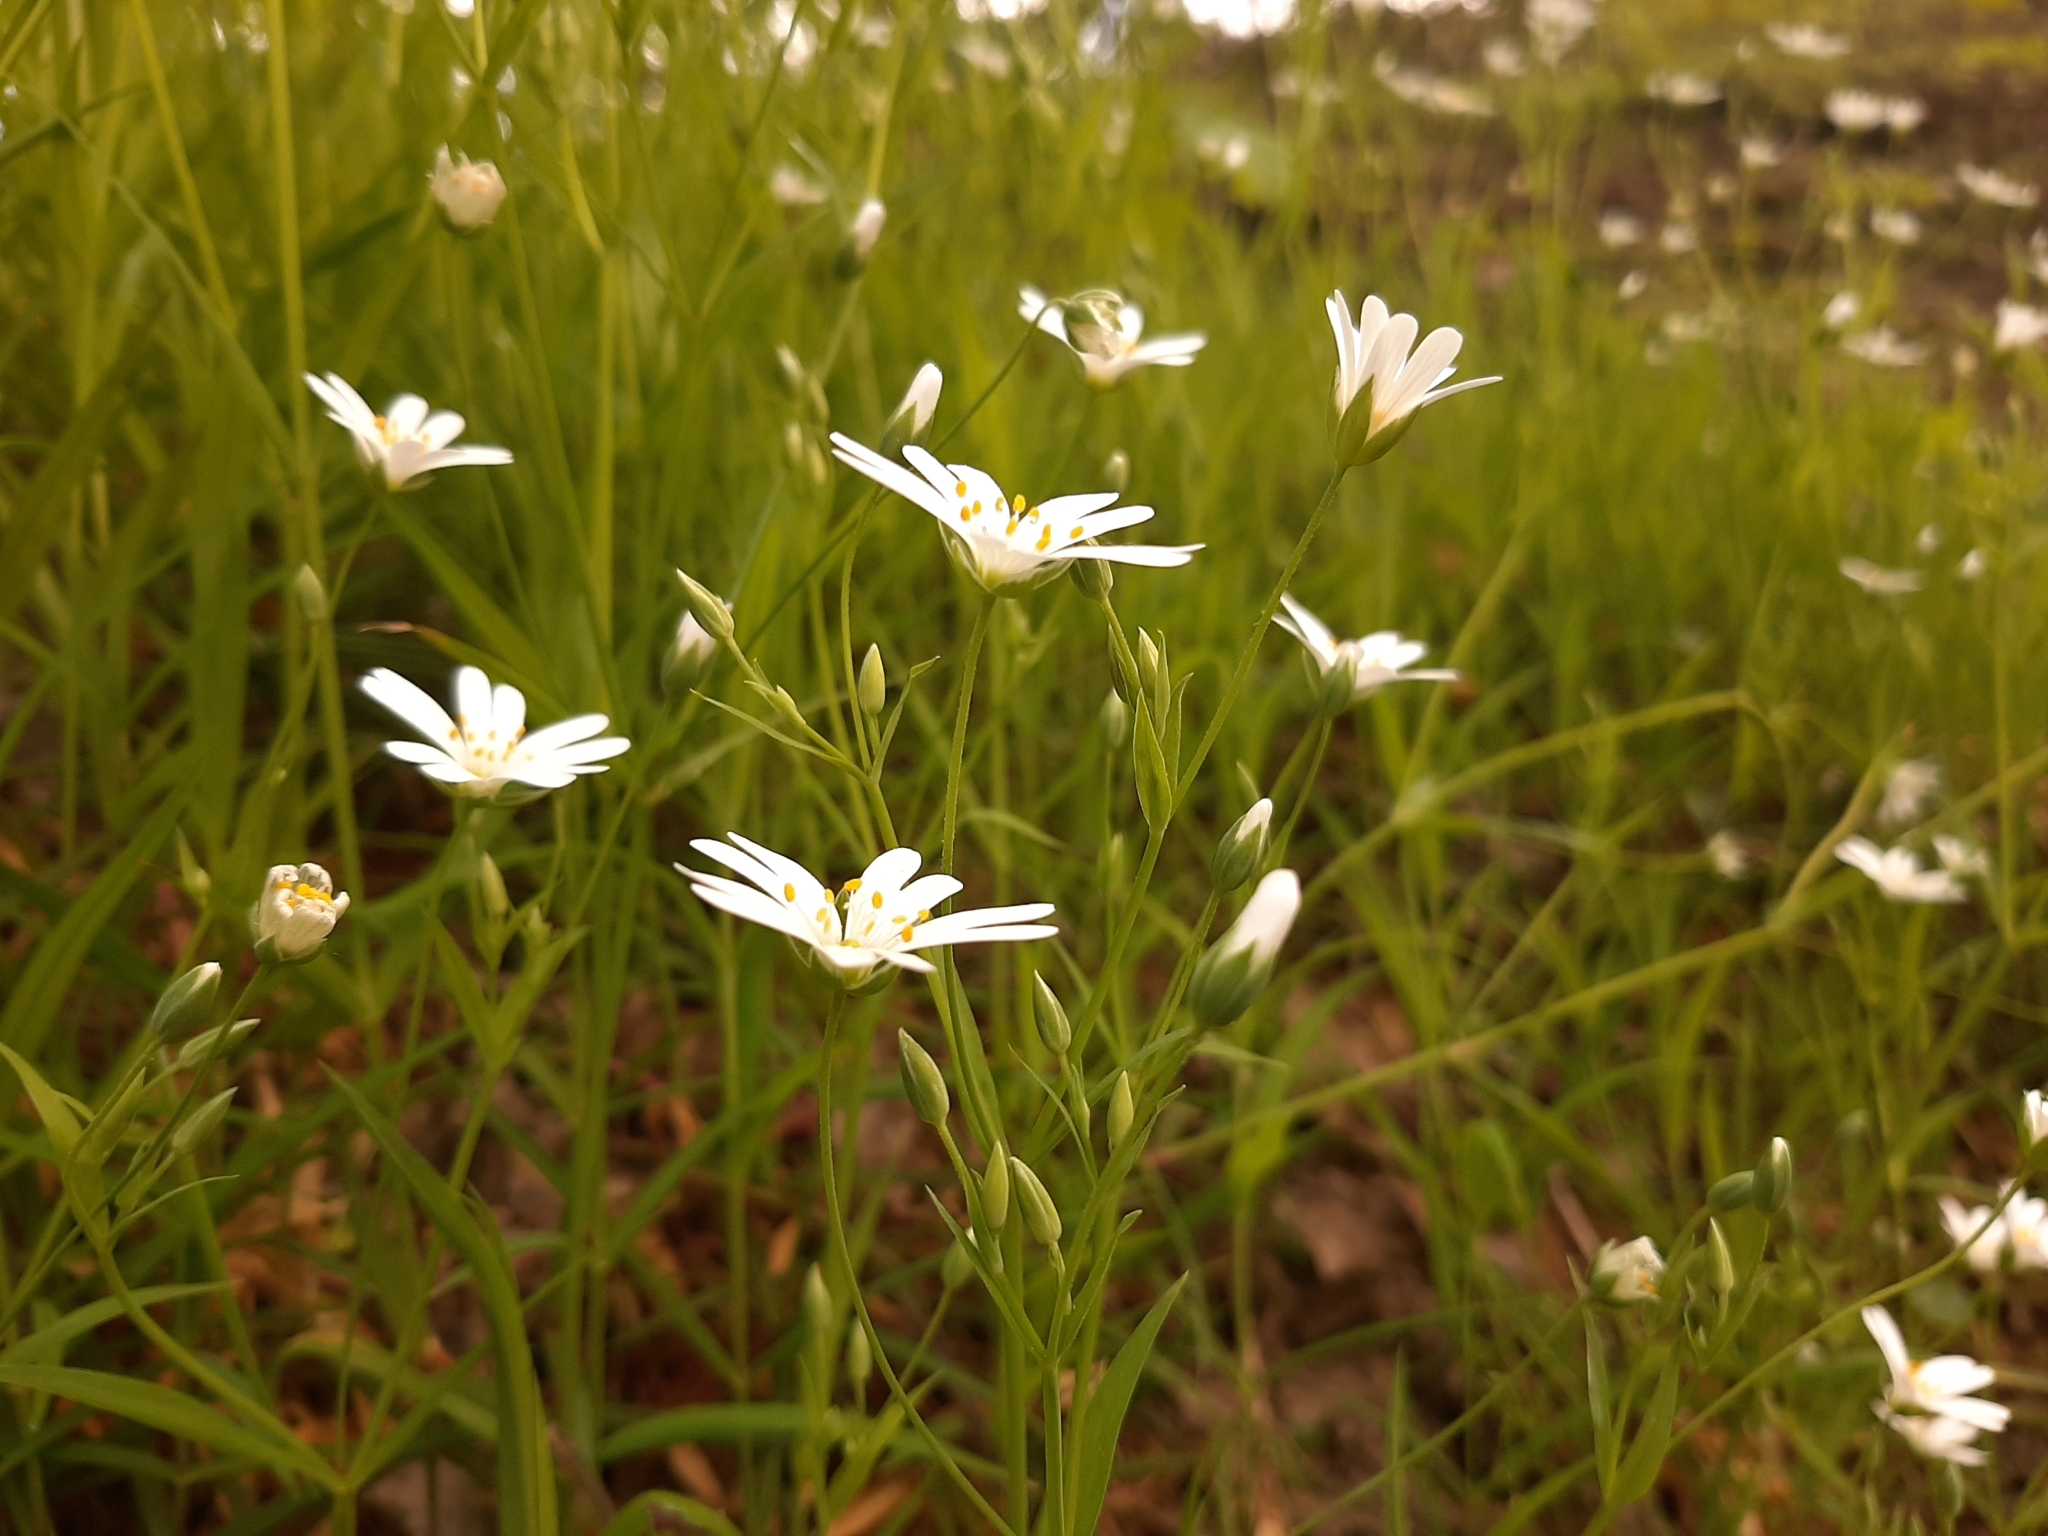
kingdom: Plantae
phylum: Tracheophyta
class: Magnoliopsida
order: Caryophyllales
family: Caryophyllaceae
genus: Rabelera
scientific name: Rabelera holostea
